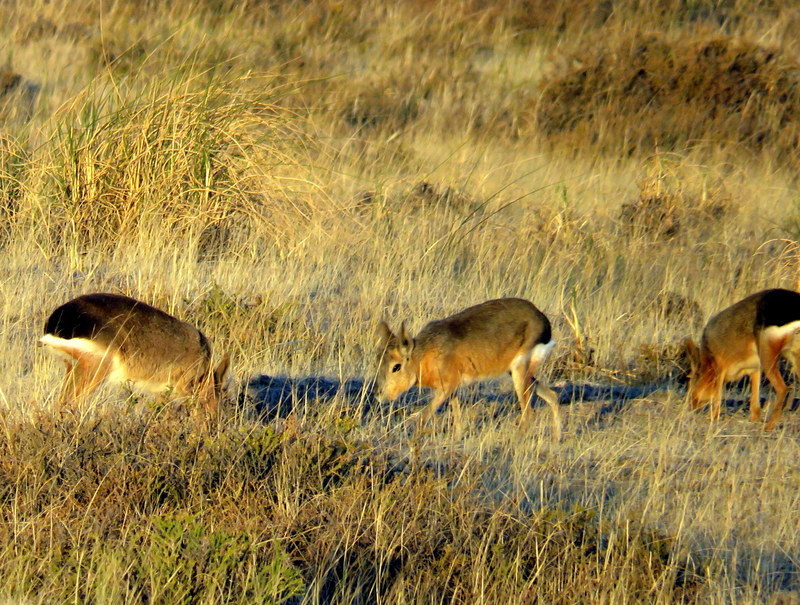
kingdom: Animalia
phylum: Chordata
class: Mammalia
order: Rodentia
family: Caviidae
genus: Dolichotis
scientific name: Dolichotis patagonum
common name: Patagonian mara
